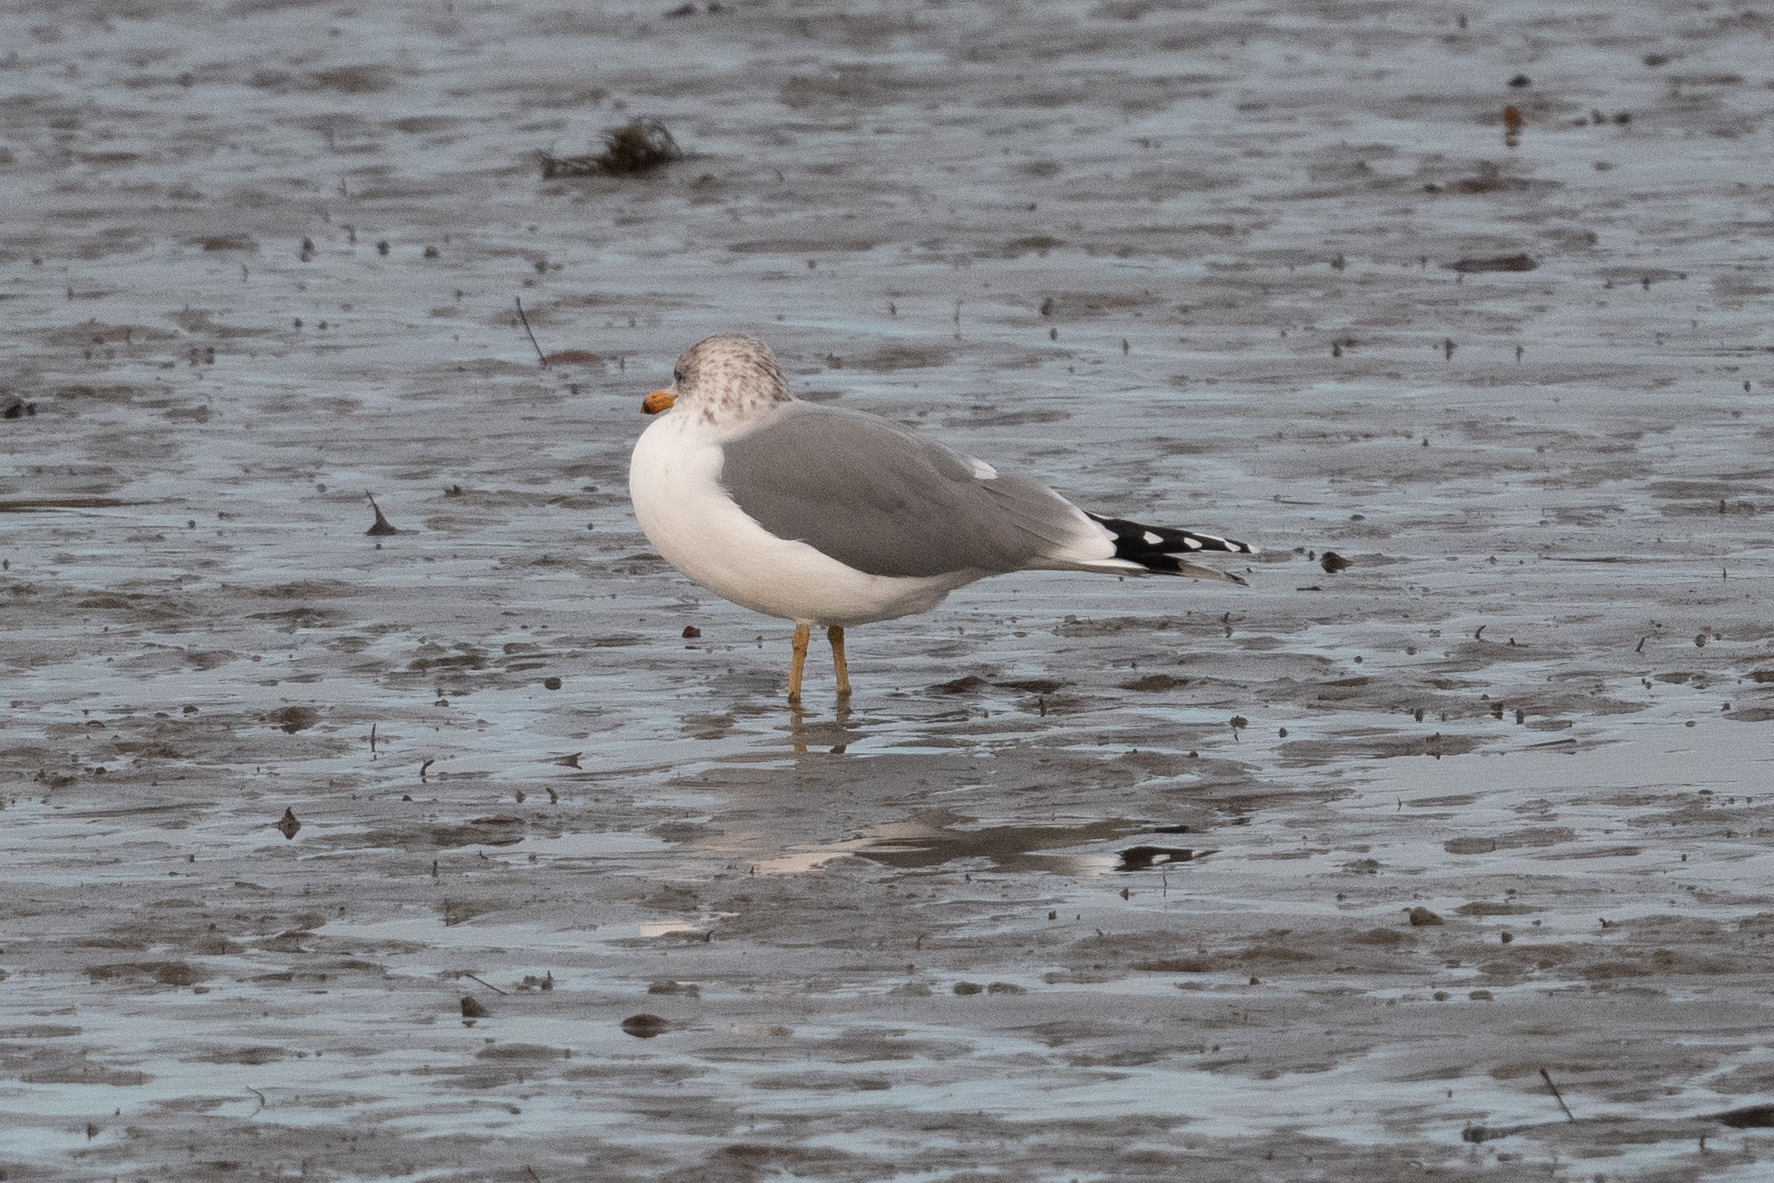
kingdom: Animalia
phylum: Chordata
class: Aves
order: Charadriiformes
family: Laridae
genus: Larus
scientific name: Larus californicus
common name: California gull
